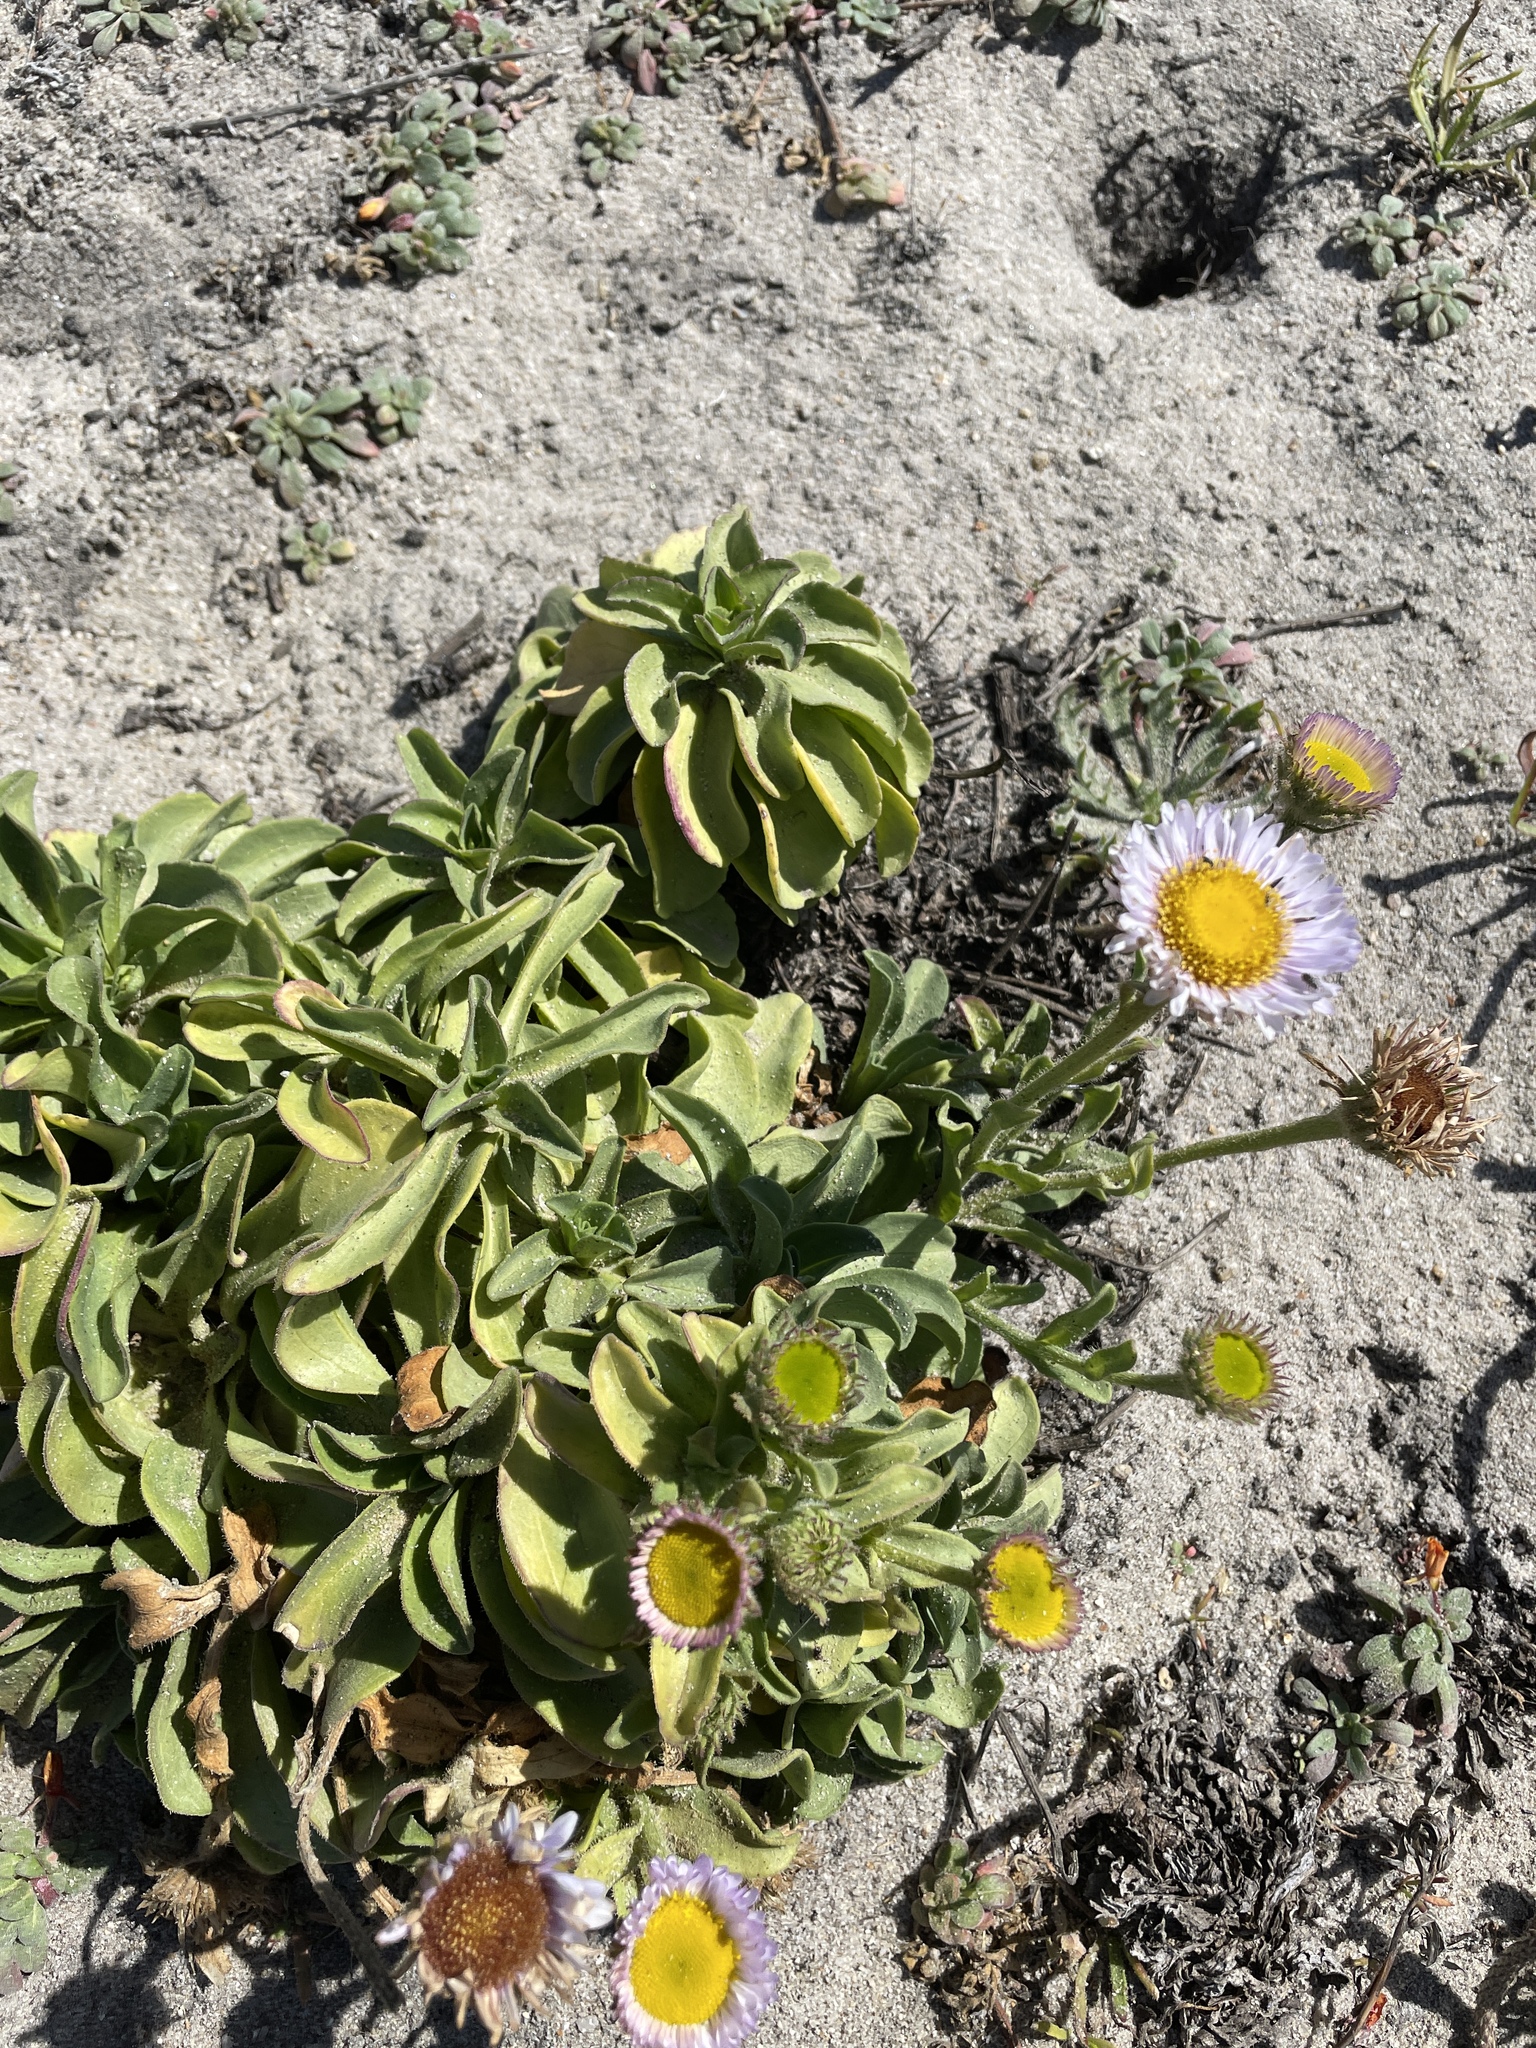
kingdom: Plantae
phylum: Tracheophyta
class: Magnoliopsida
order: Asterales
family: Asteraceae
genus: Erigeron
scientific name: Erigeron glaucus
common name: Seaside daisy
